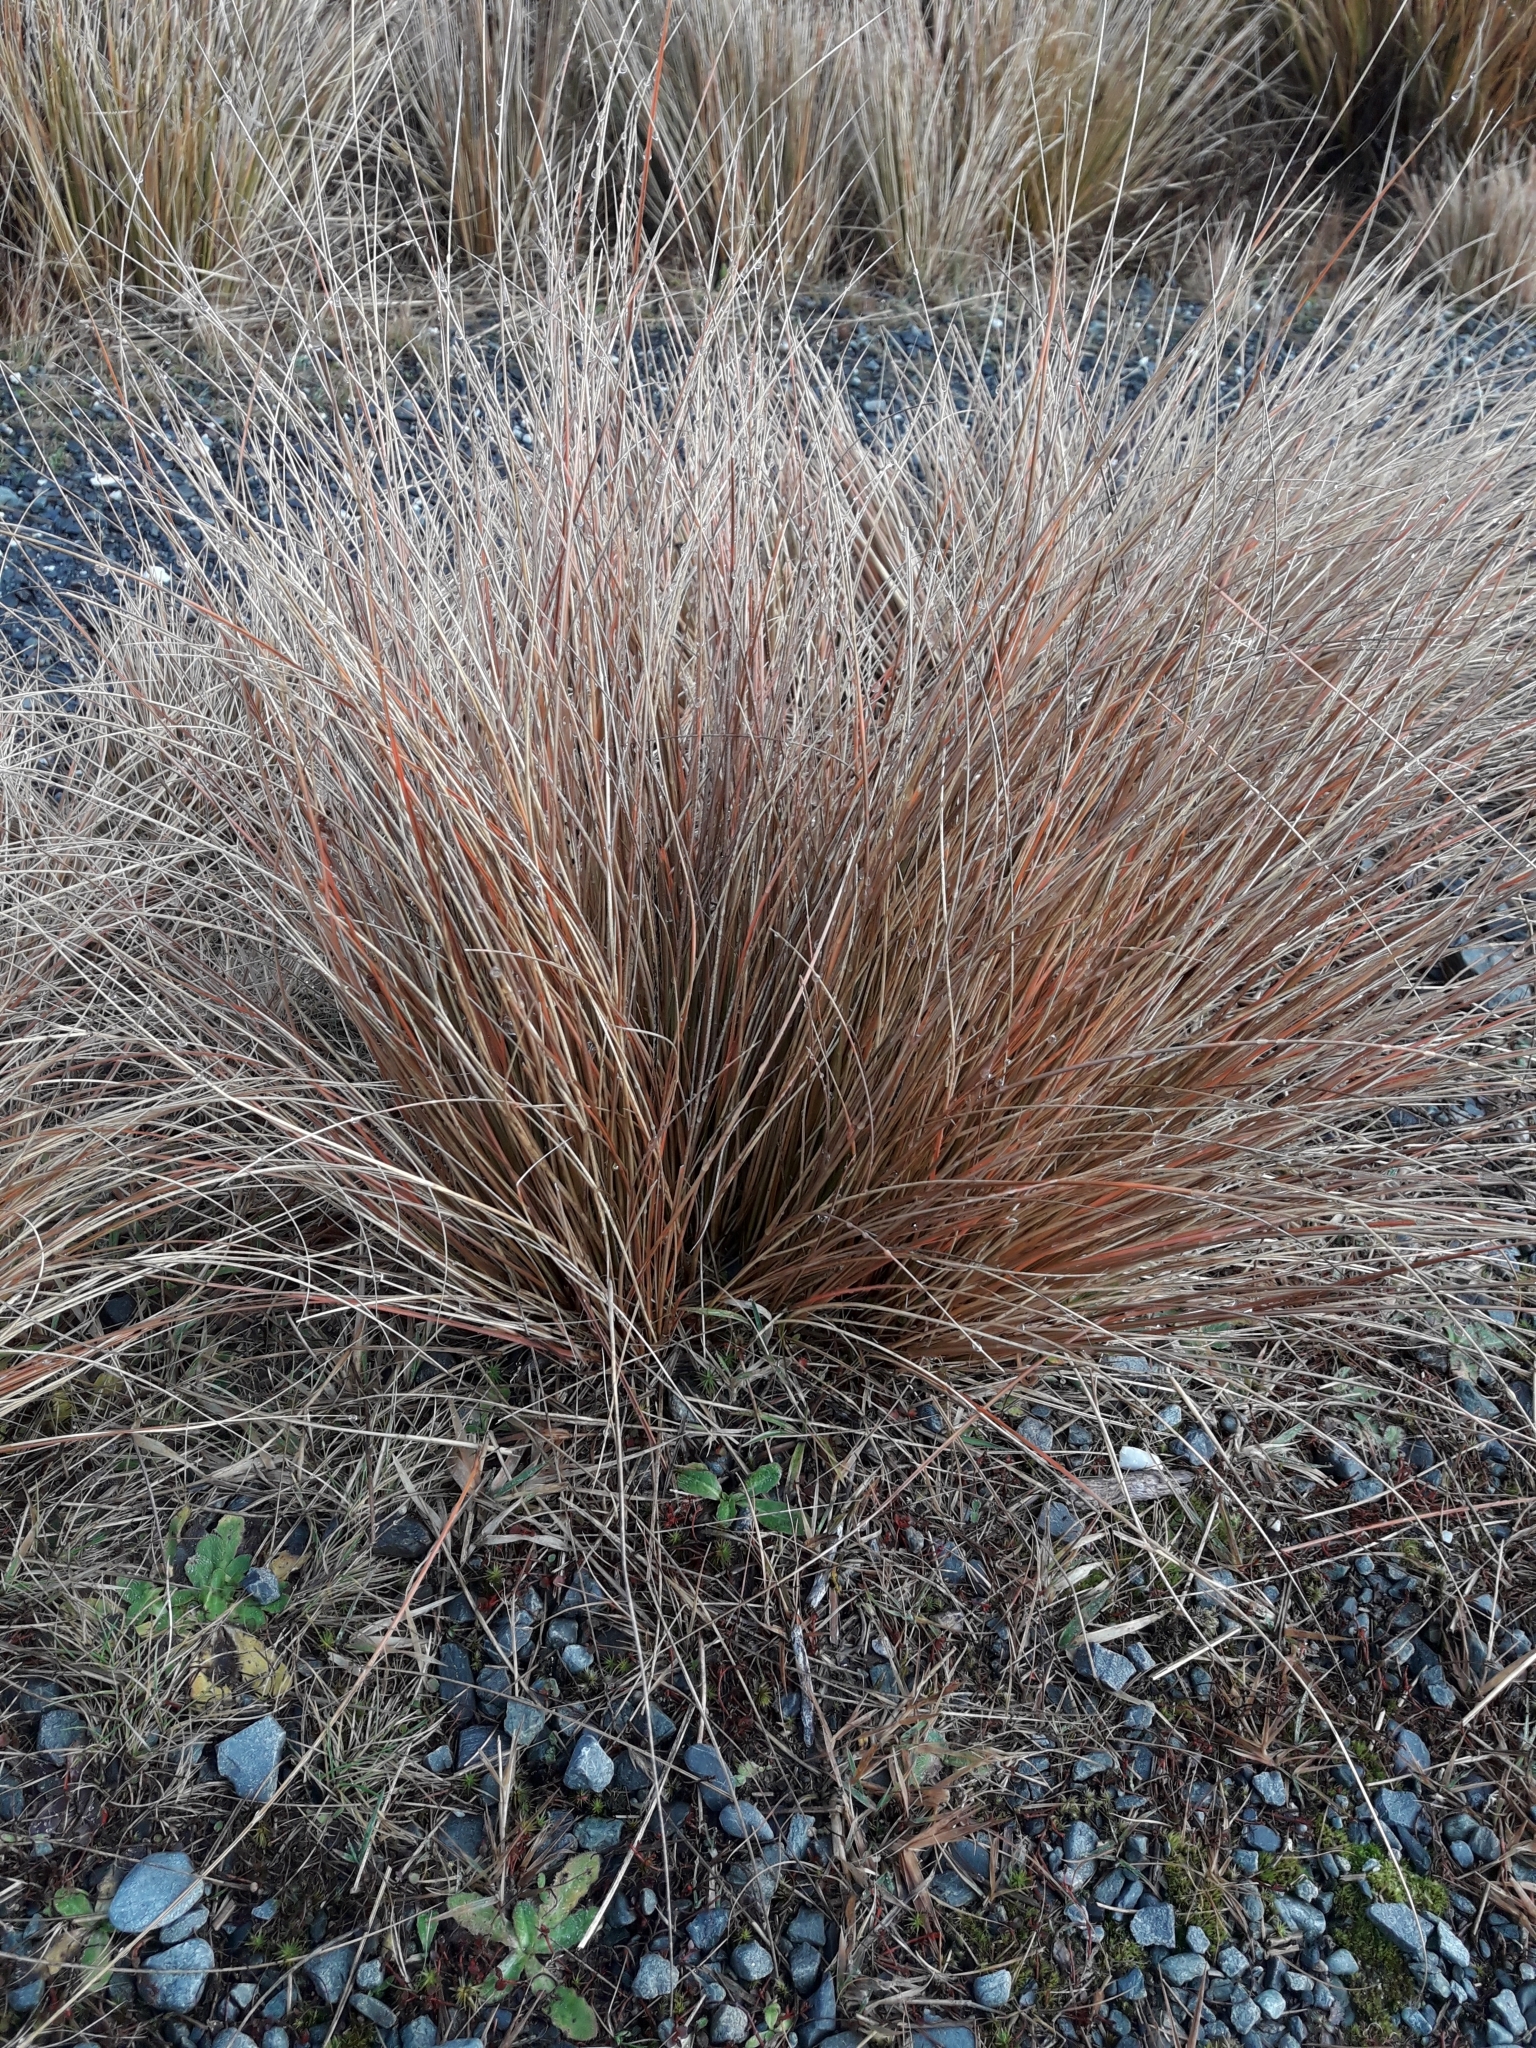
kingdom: Plantae
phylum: Tracheophyta
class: Liliopsida
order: Poales
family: Poaceae
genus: Chionochloa
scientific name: Chionochloa rubra
